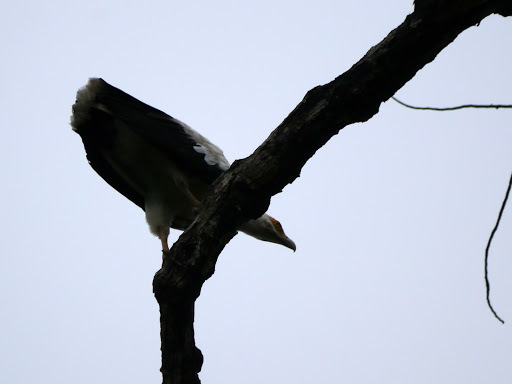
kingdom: Animalia
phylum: Chordata
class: Aves
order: Accipitriformes
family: Accipitridae
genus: Gypohierax
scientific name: Gypohierax angolensis
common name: Palm-nut vulture
